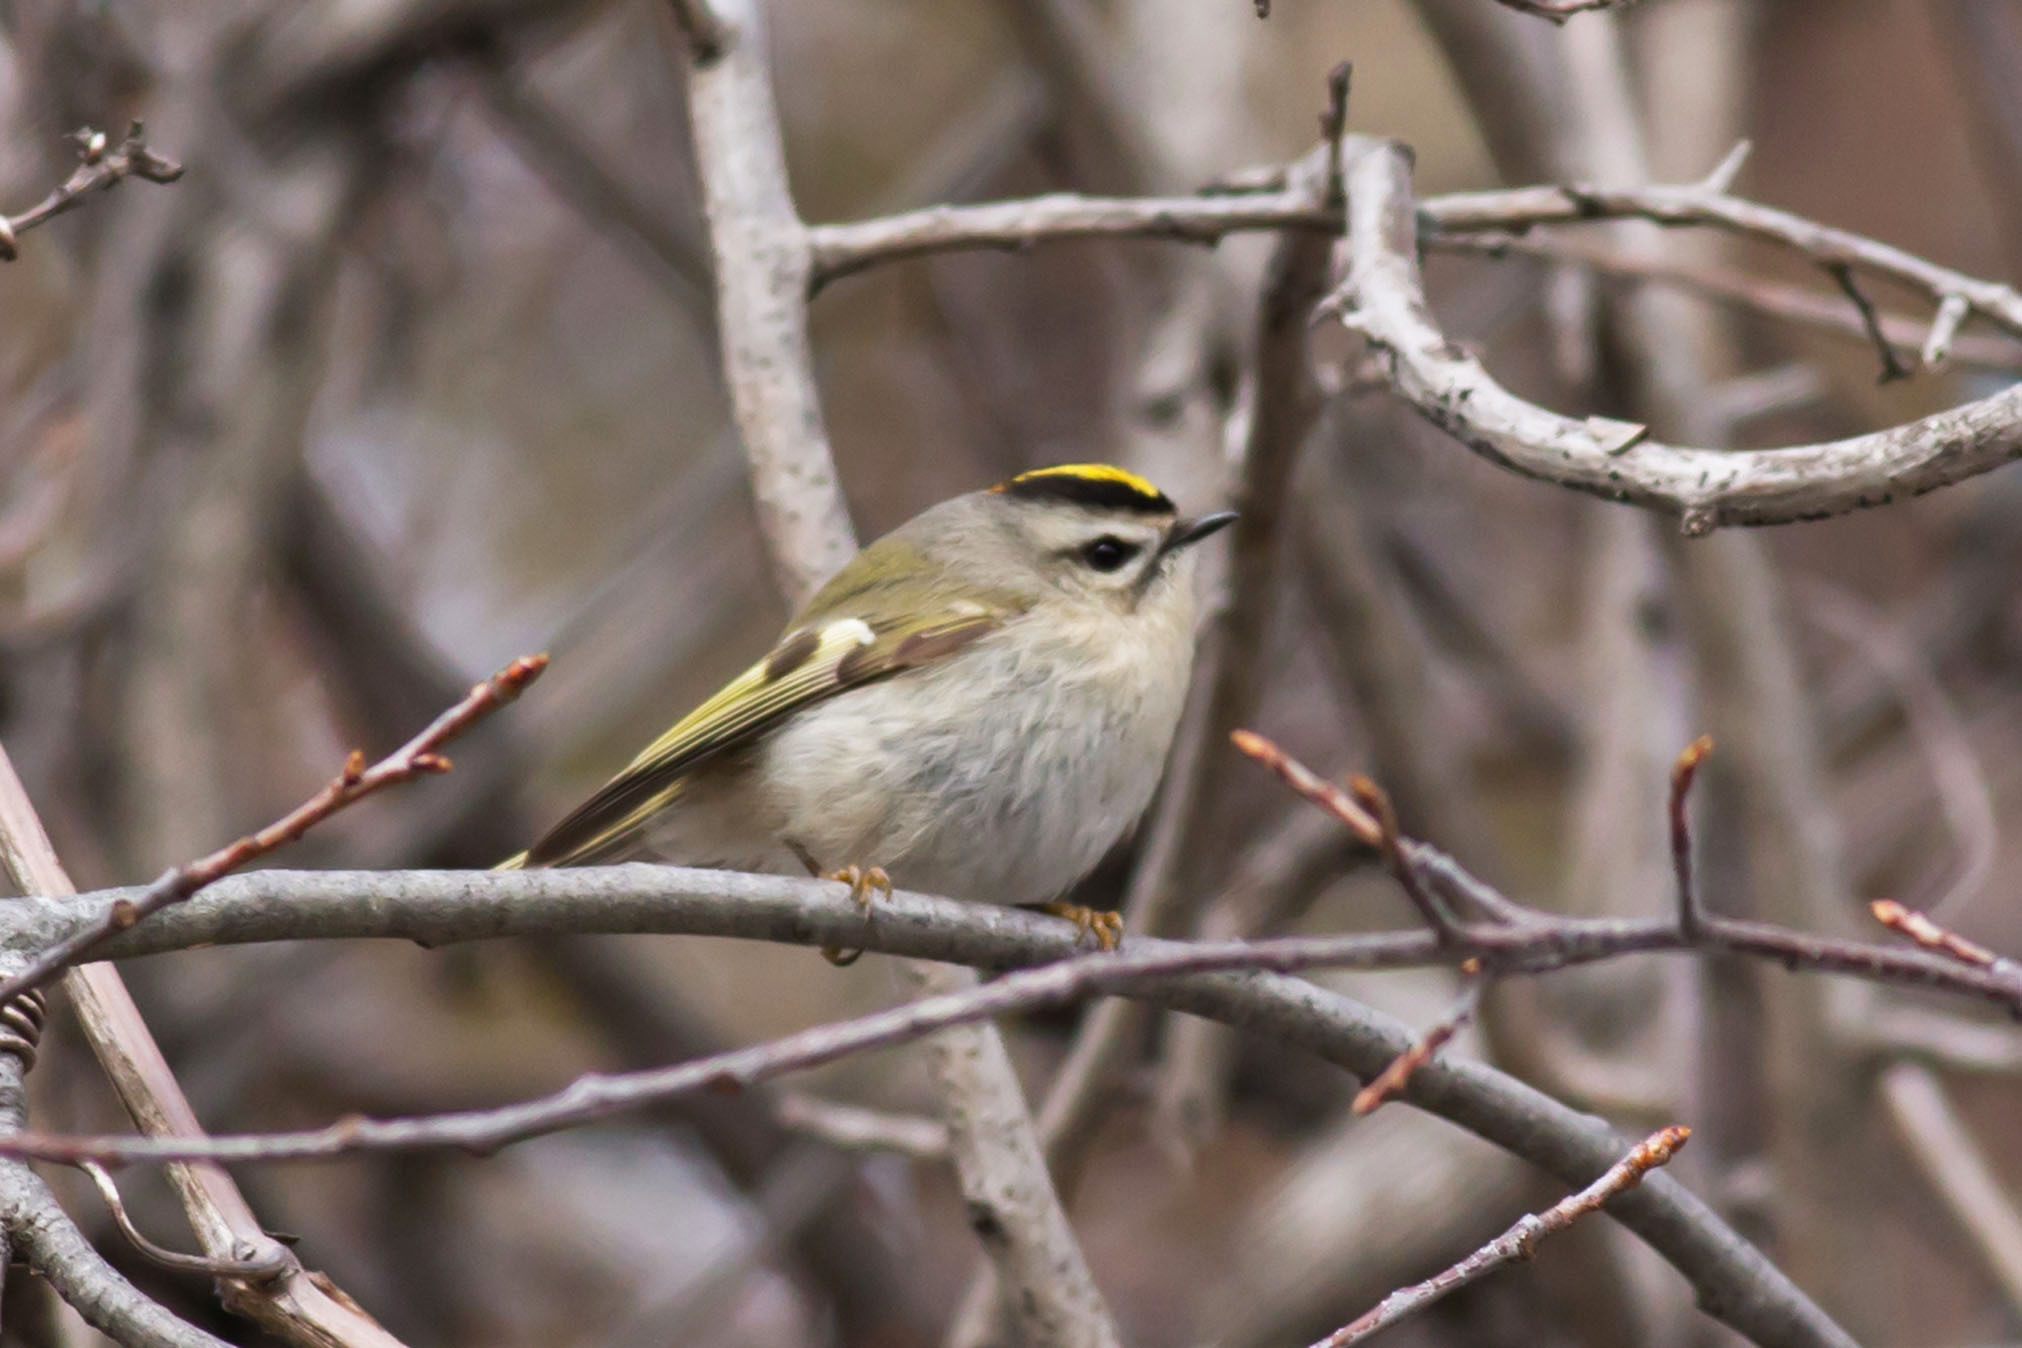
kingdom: Animalia
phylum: Chordata
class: Aves
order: Passeriformes
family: Regulidae
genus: Regulus
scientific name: Regulus satrapa
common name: Golden-crowned kinglet
